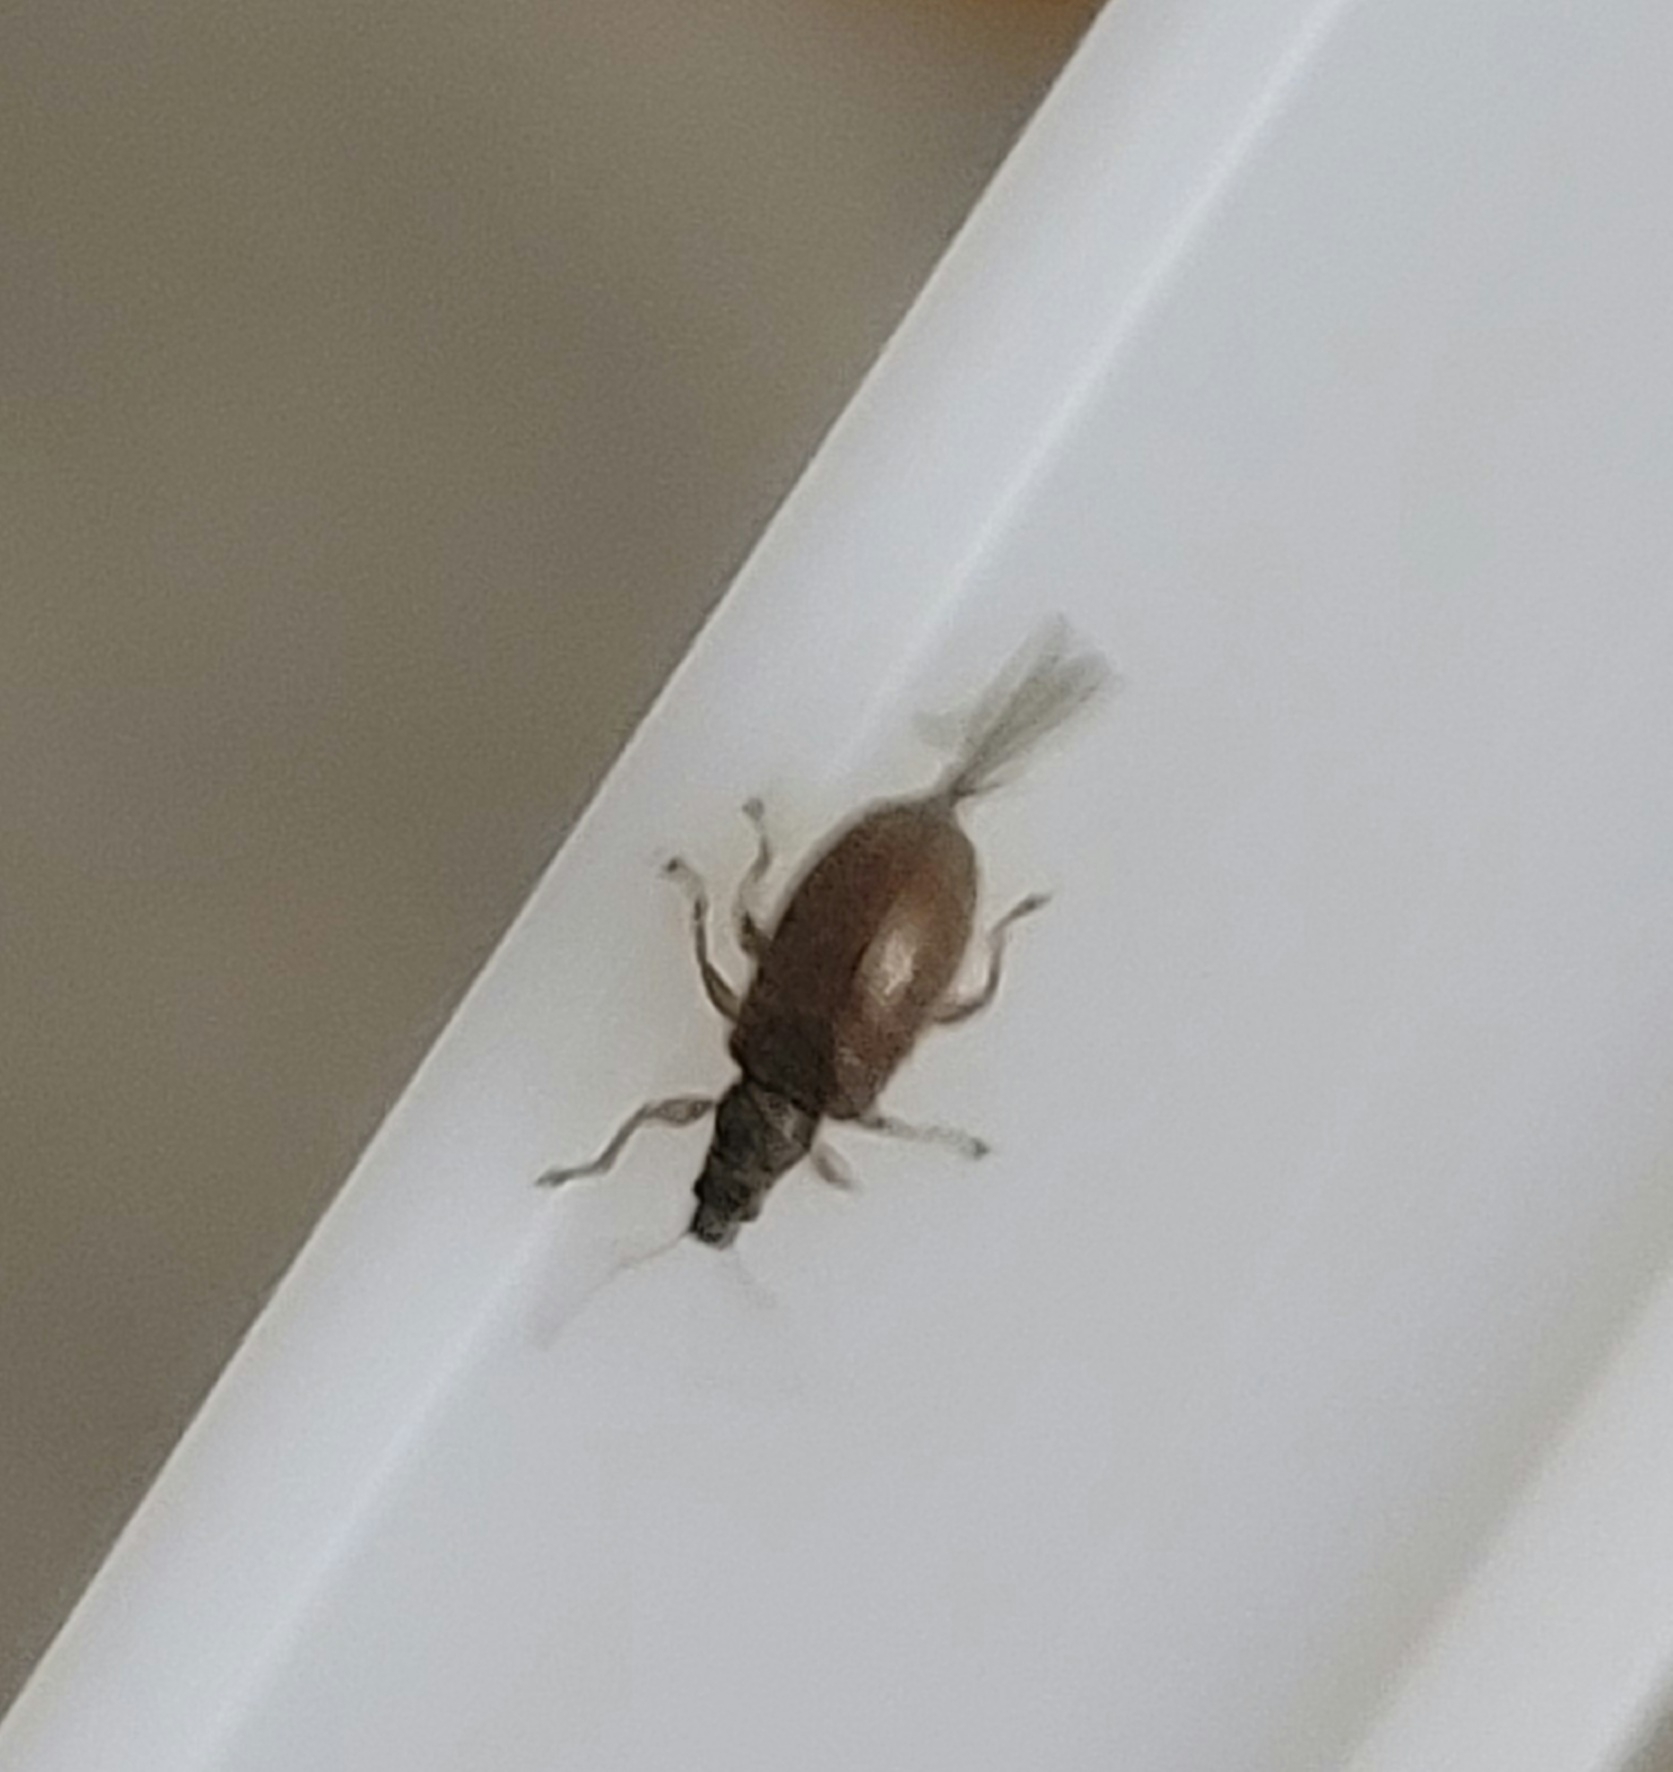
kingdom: Animalia
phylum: Arthropoda
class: Insecta
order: Coleoptera
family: Curculionidae
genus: Phyllobius
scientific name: Phyllobius oblongus
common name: Brown leaf weevil
